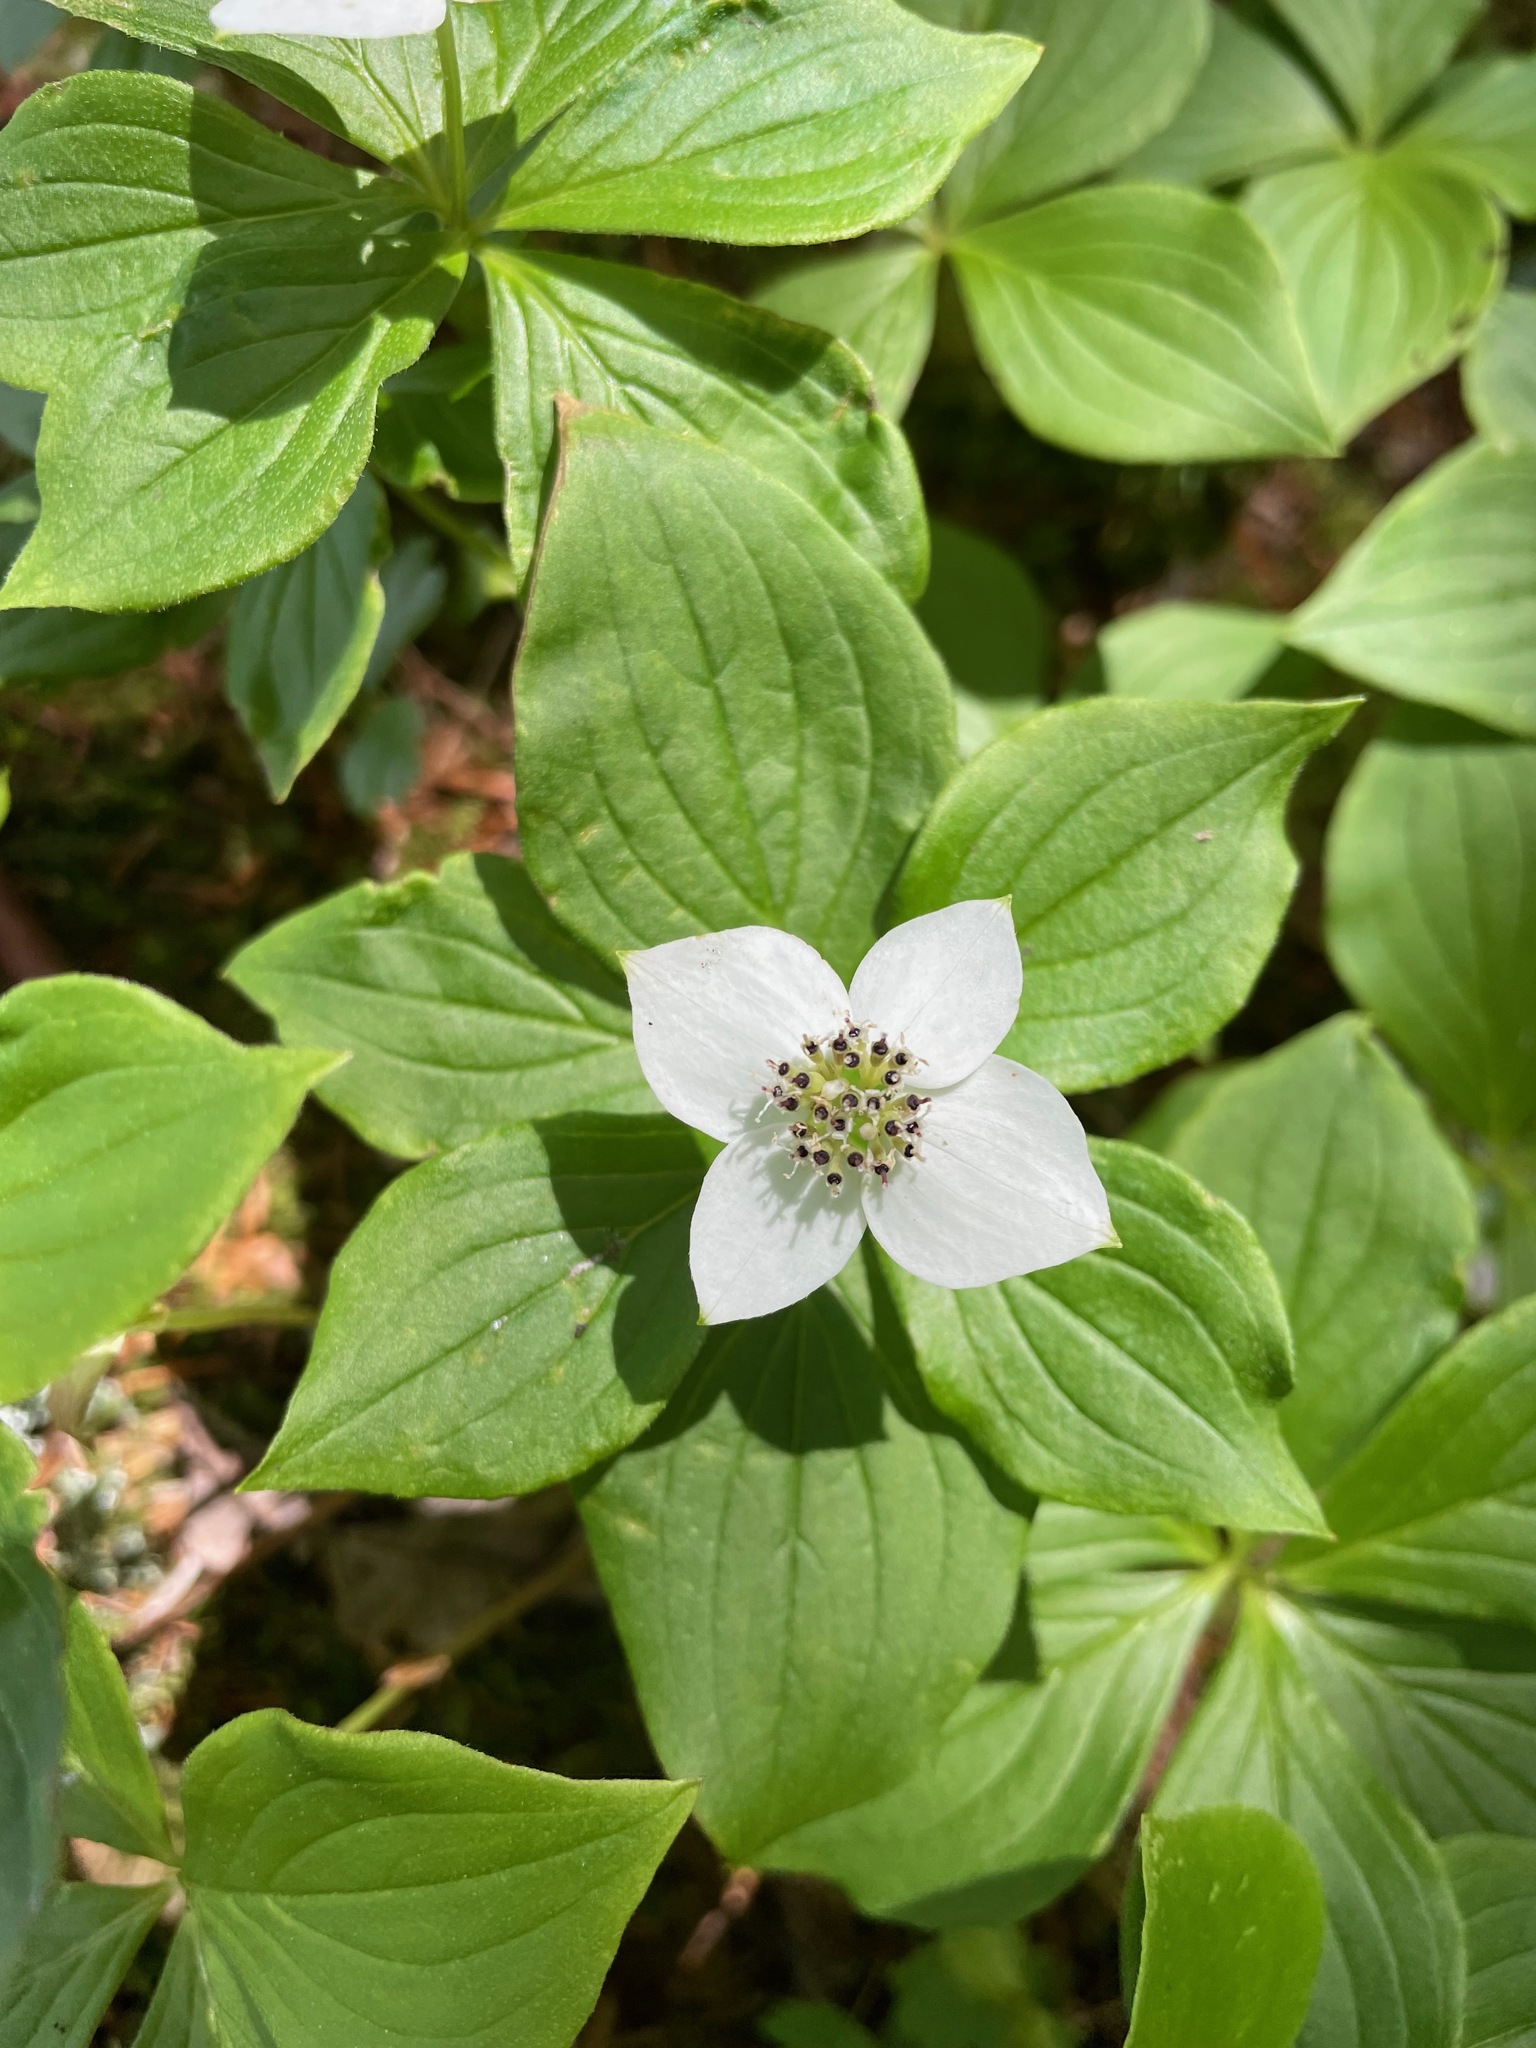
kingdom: Plantae
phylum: Tracheophyta
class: Magnoliopsida
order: Cornales
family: Cornaceae
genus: Cornus
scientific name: Cornus canadensis
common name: Creeping dogwood
